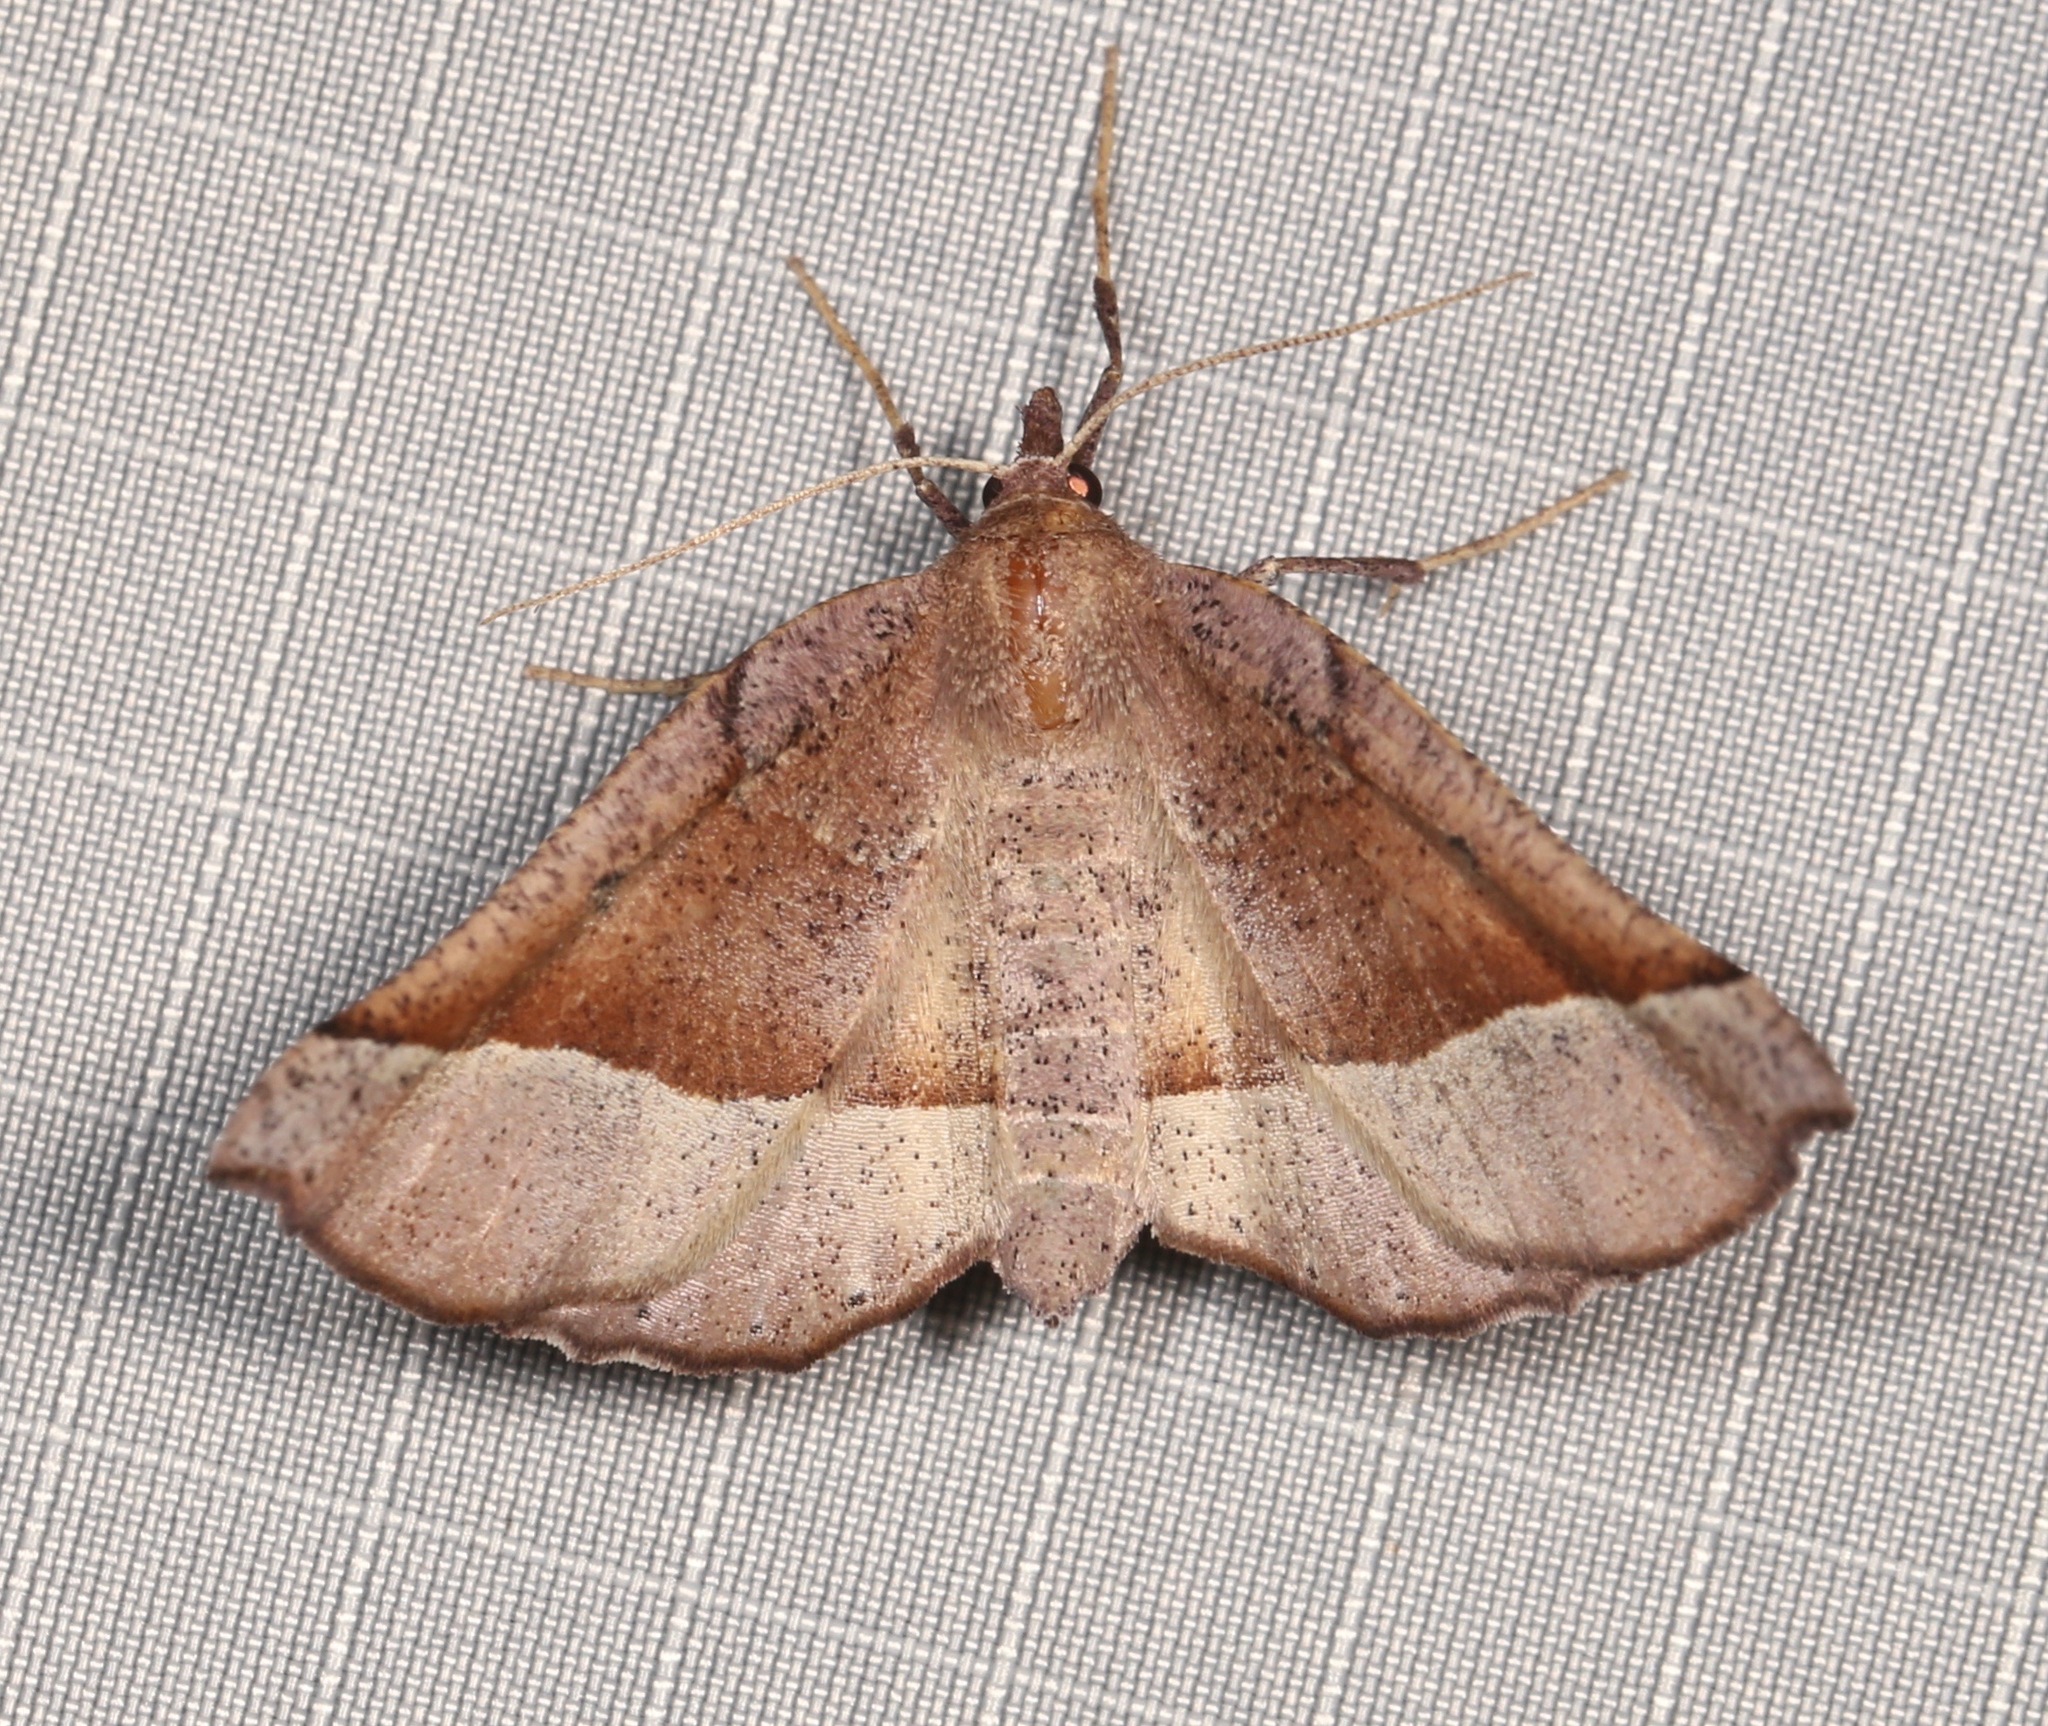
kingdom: Animalia
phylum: Arthropoda
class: Insecta
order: Lepidoptera
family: Geometridae
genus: Pero
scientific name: Pero
